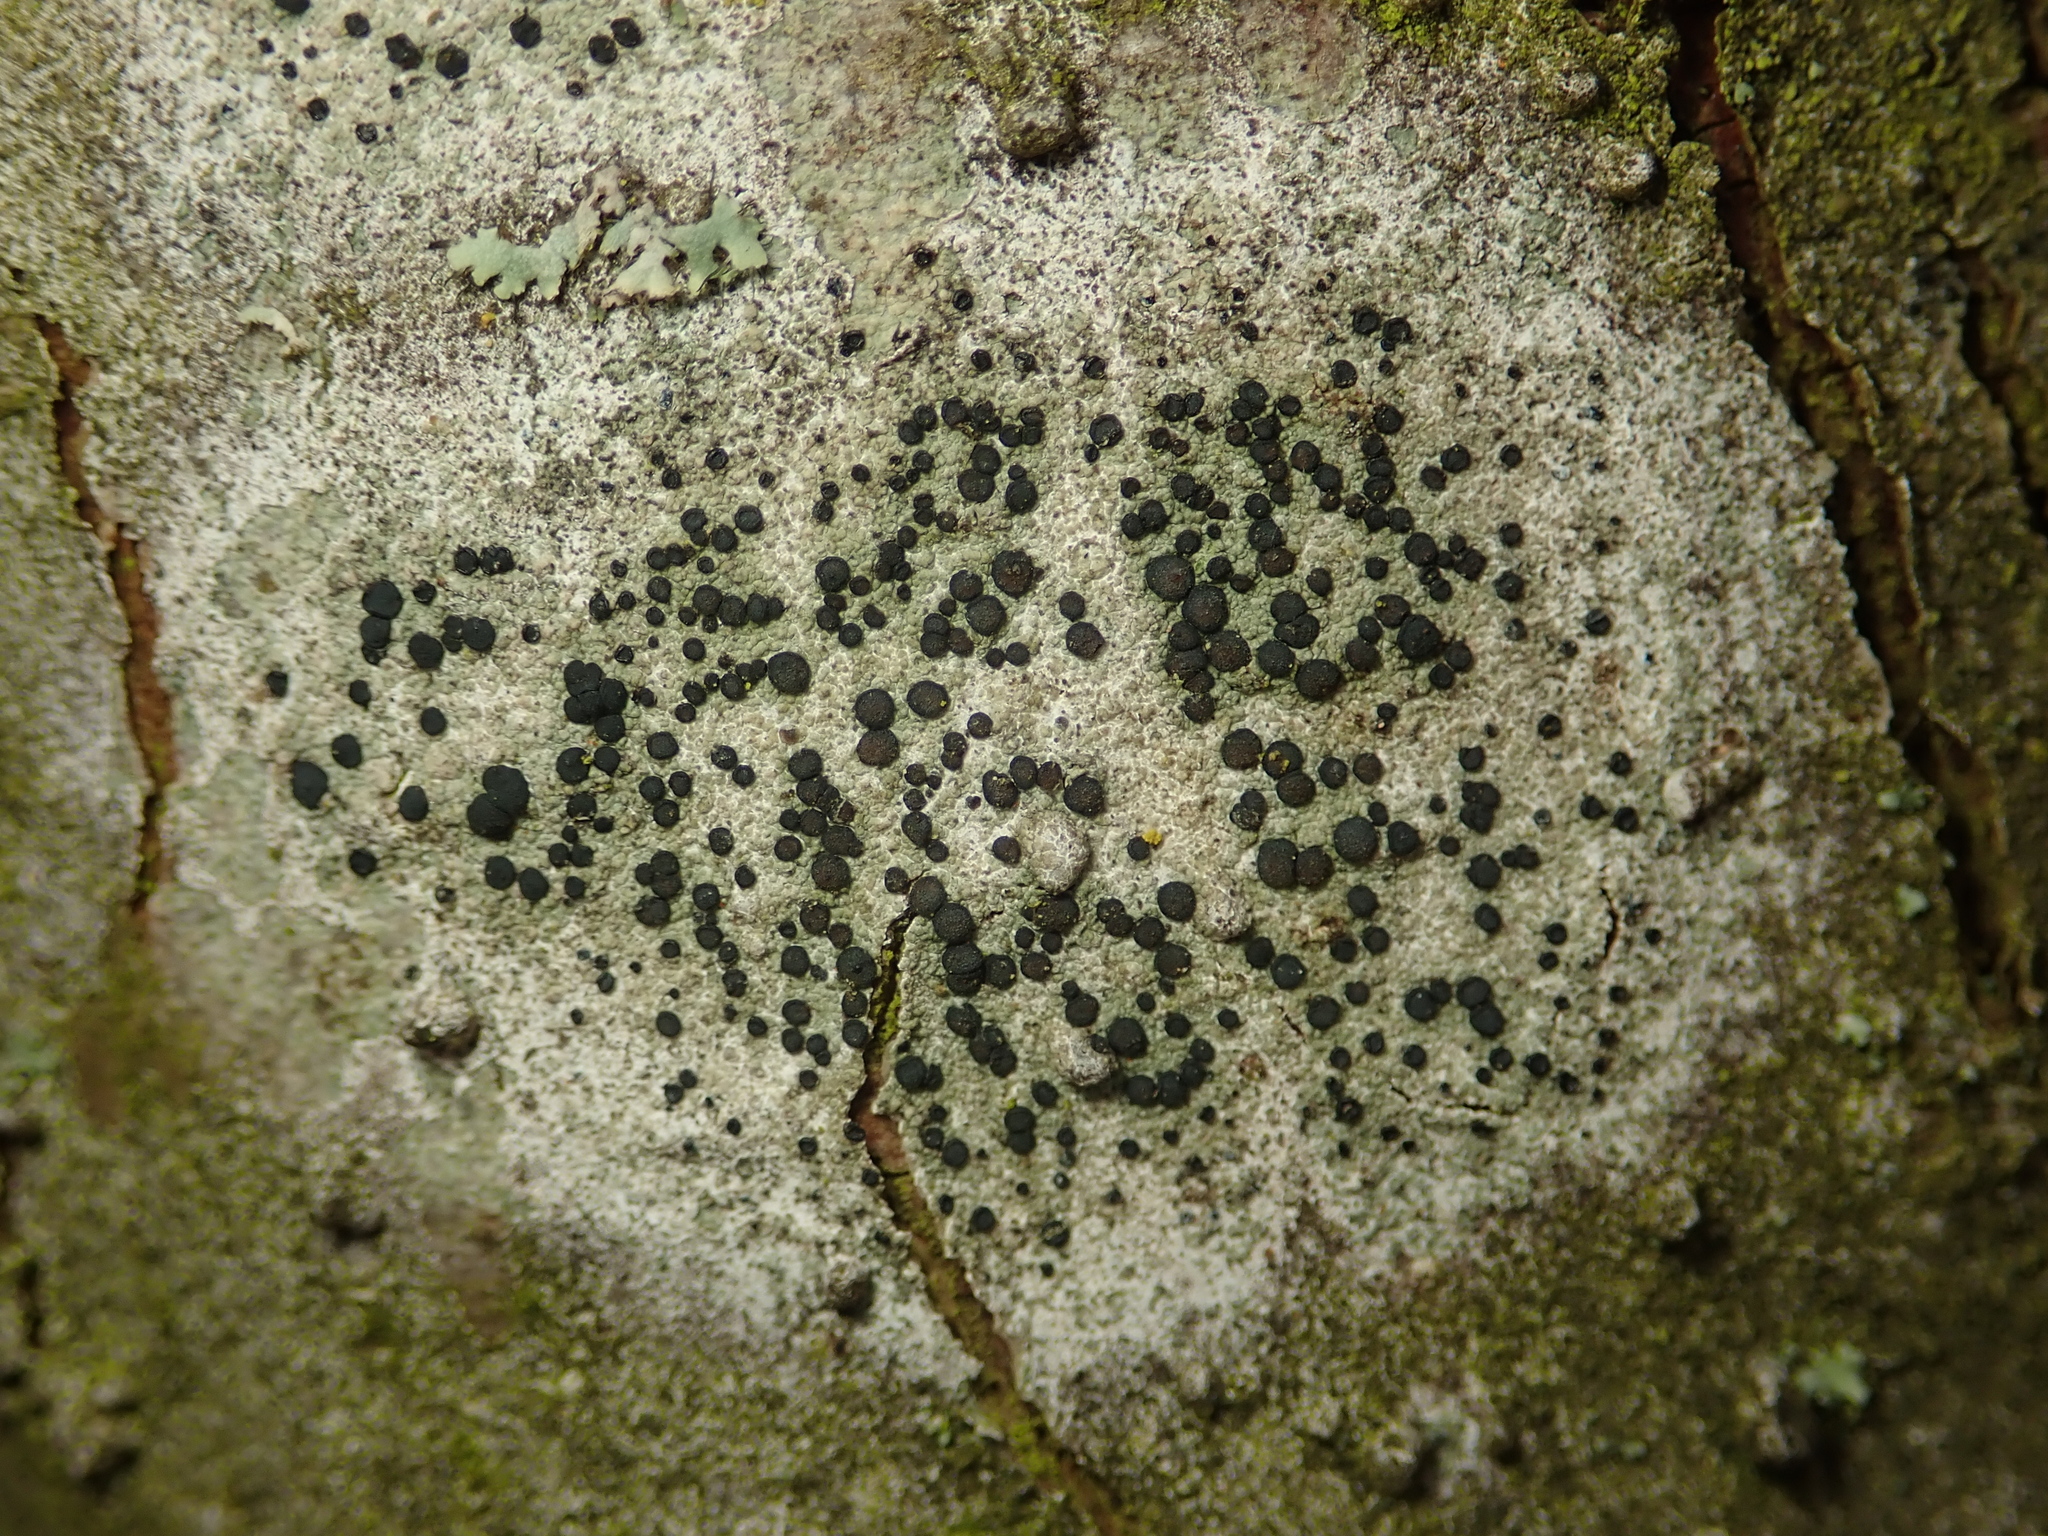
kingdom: Fungi
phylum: Ascomycota
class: Lecanoromycetes
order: Lecanorales
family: Lecanoraceae
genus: Lecidella
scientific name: Lecidella elaeochroma
